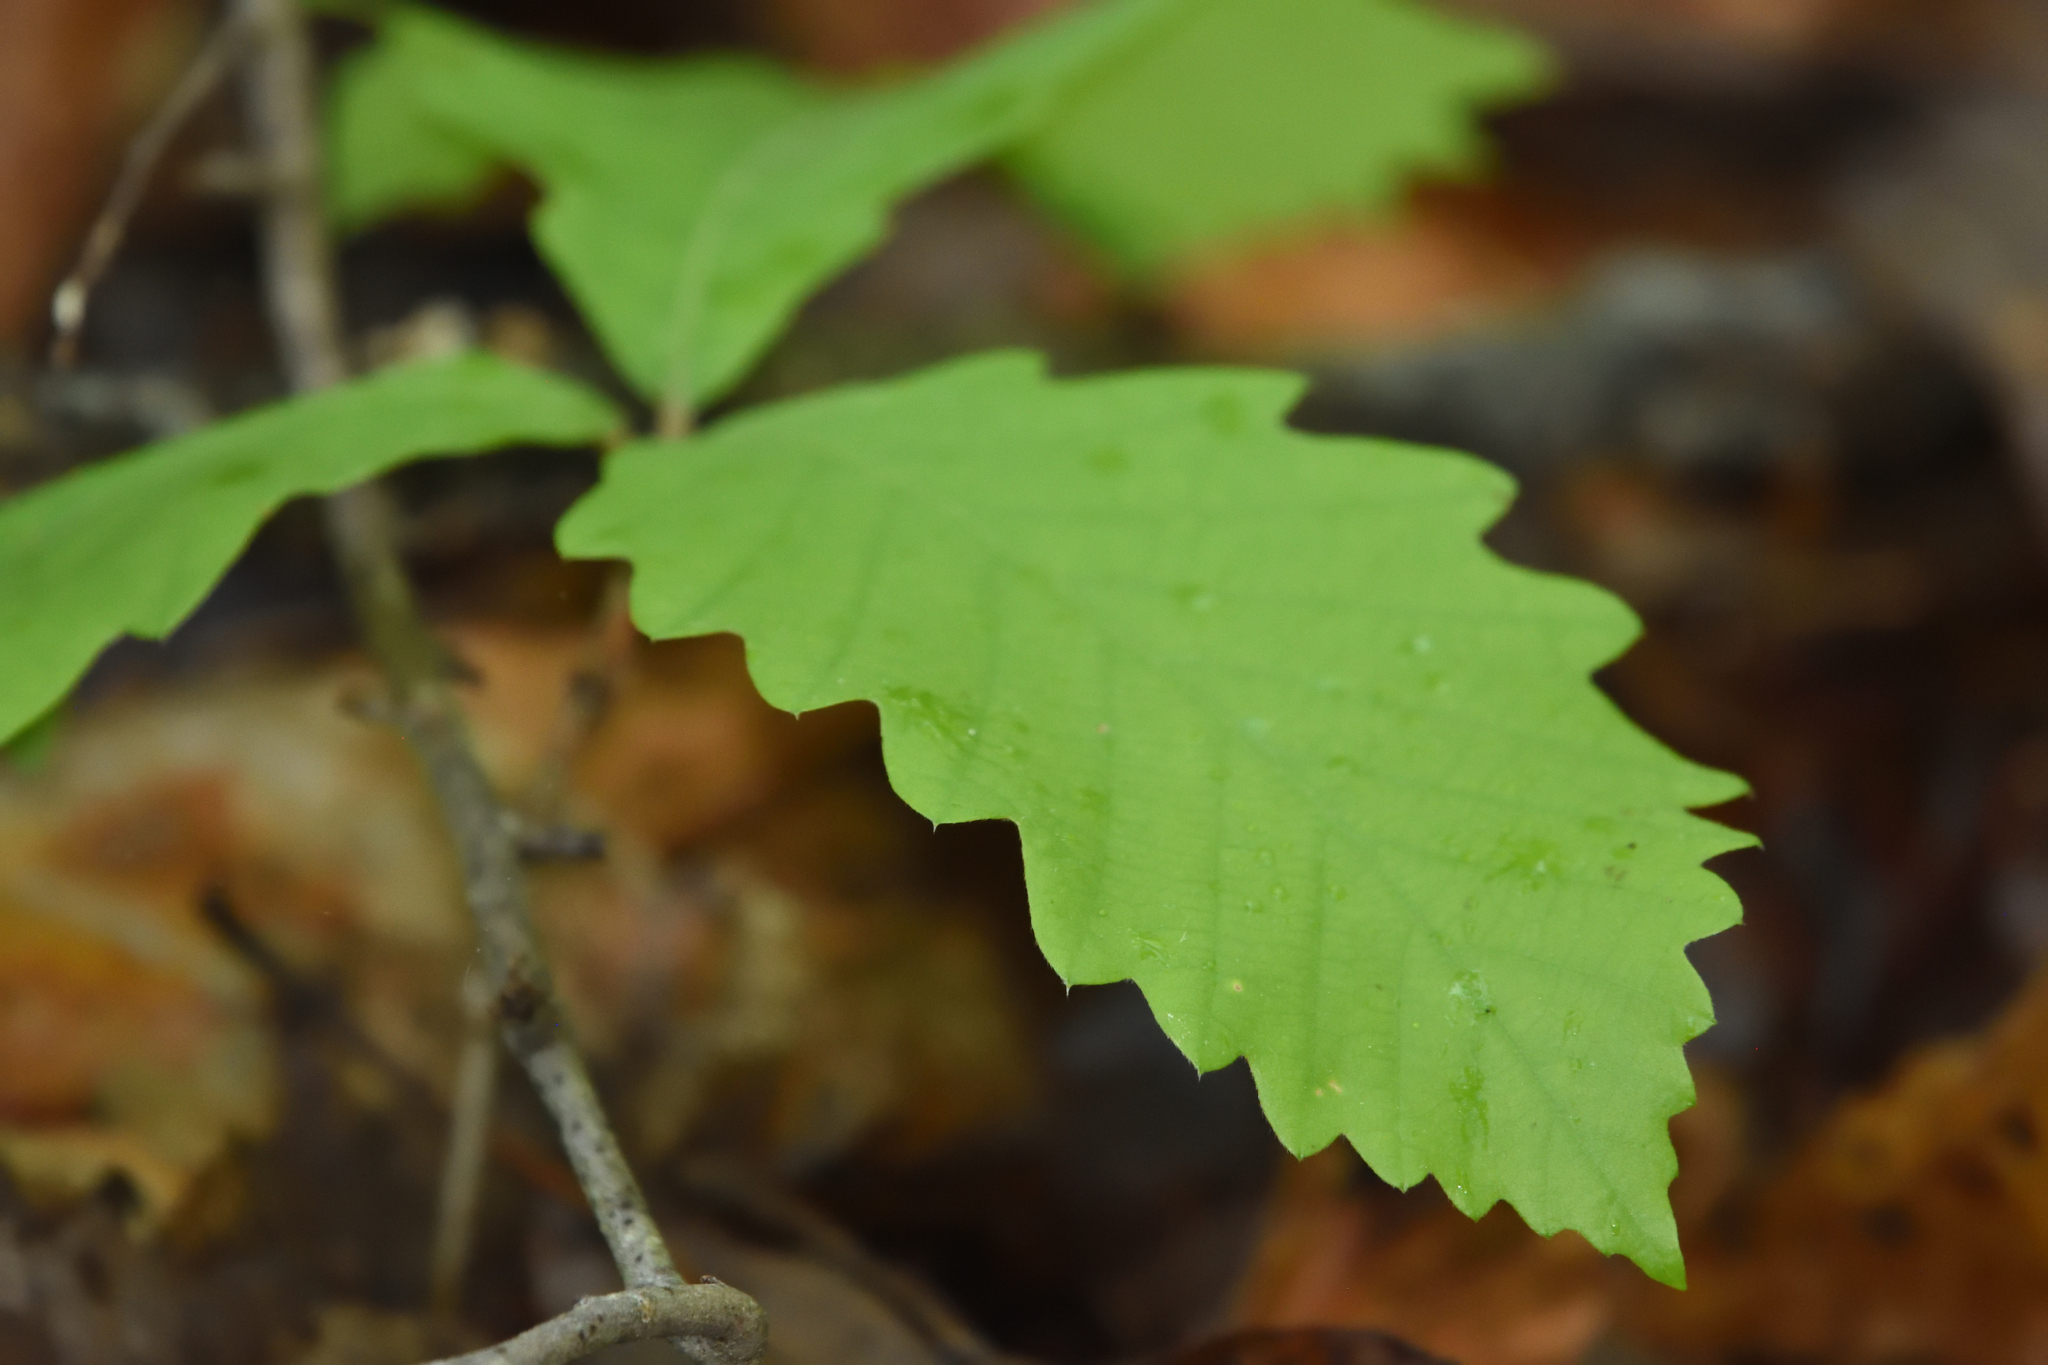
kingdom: Plantae
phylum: Tracheophyta
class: Magnoliopsida
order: Fagales
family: Fagaceae
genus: Quercus
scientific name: Quercus montana
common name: Chestnut oak
